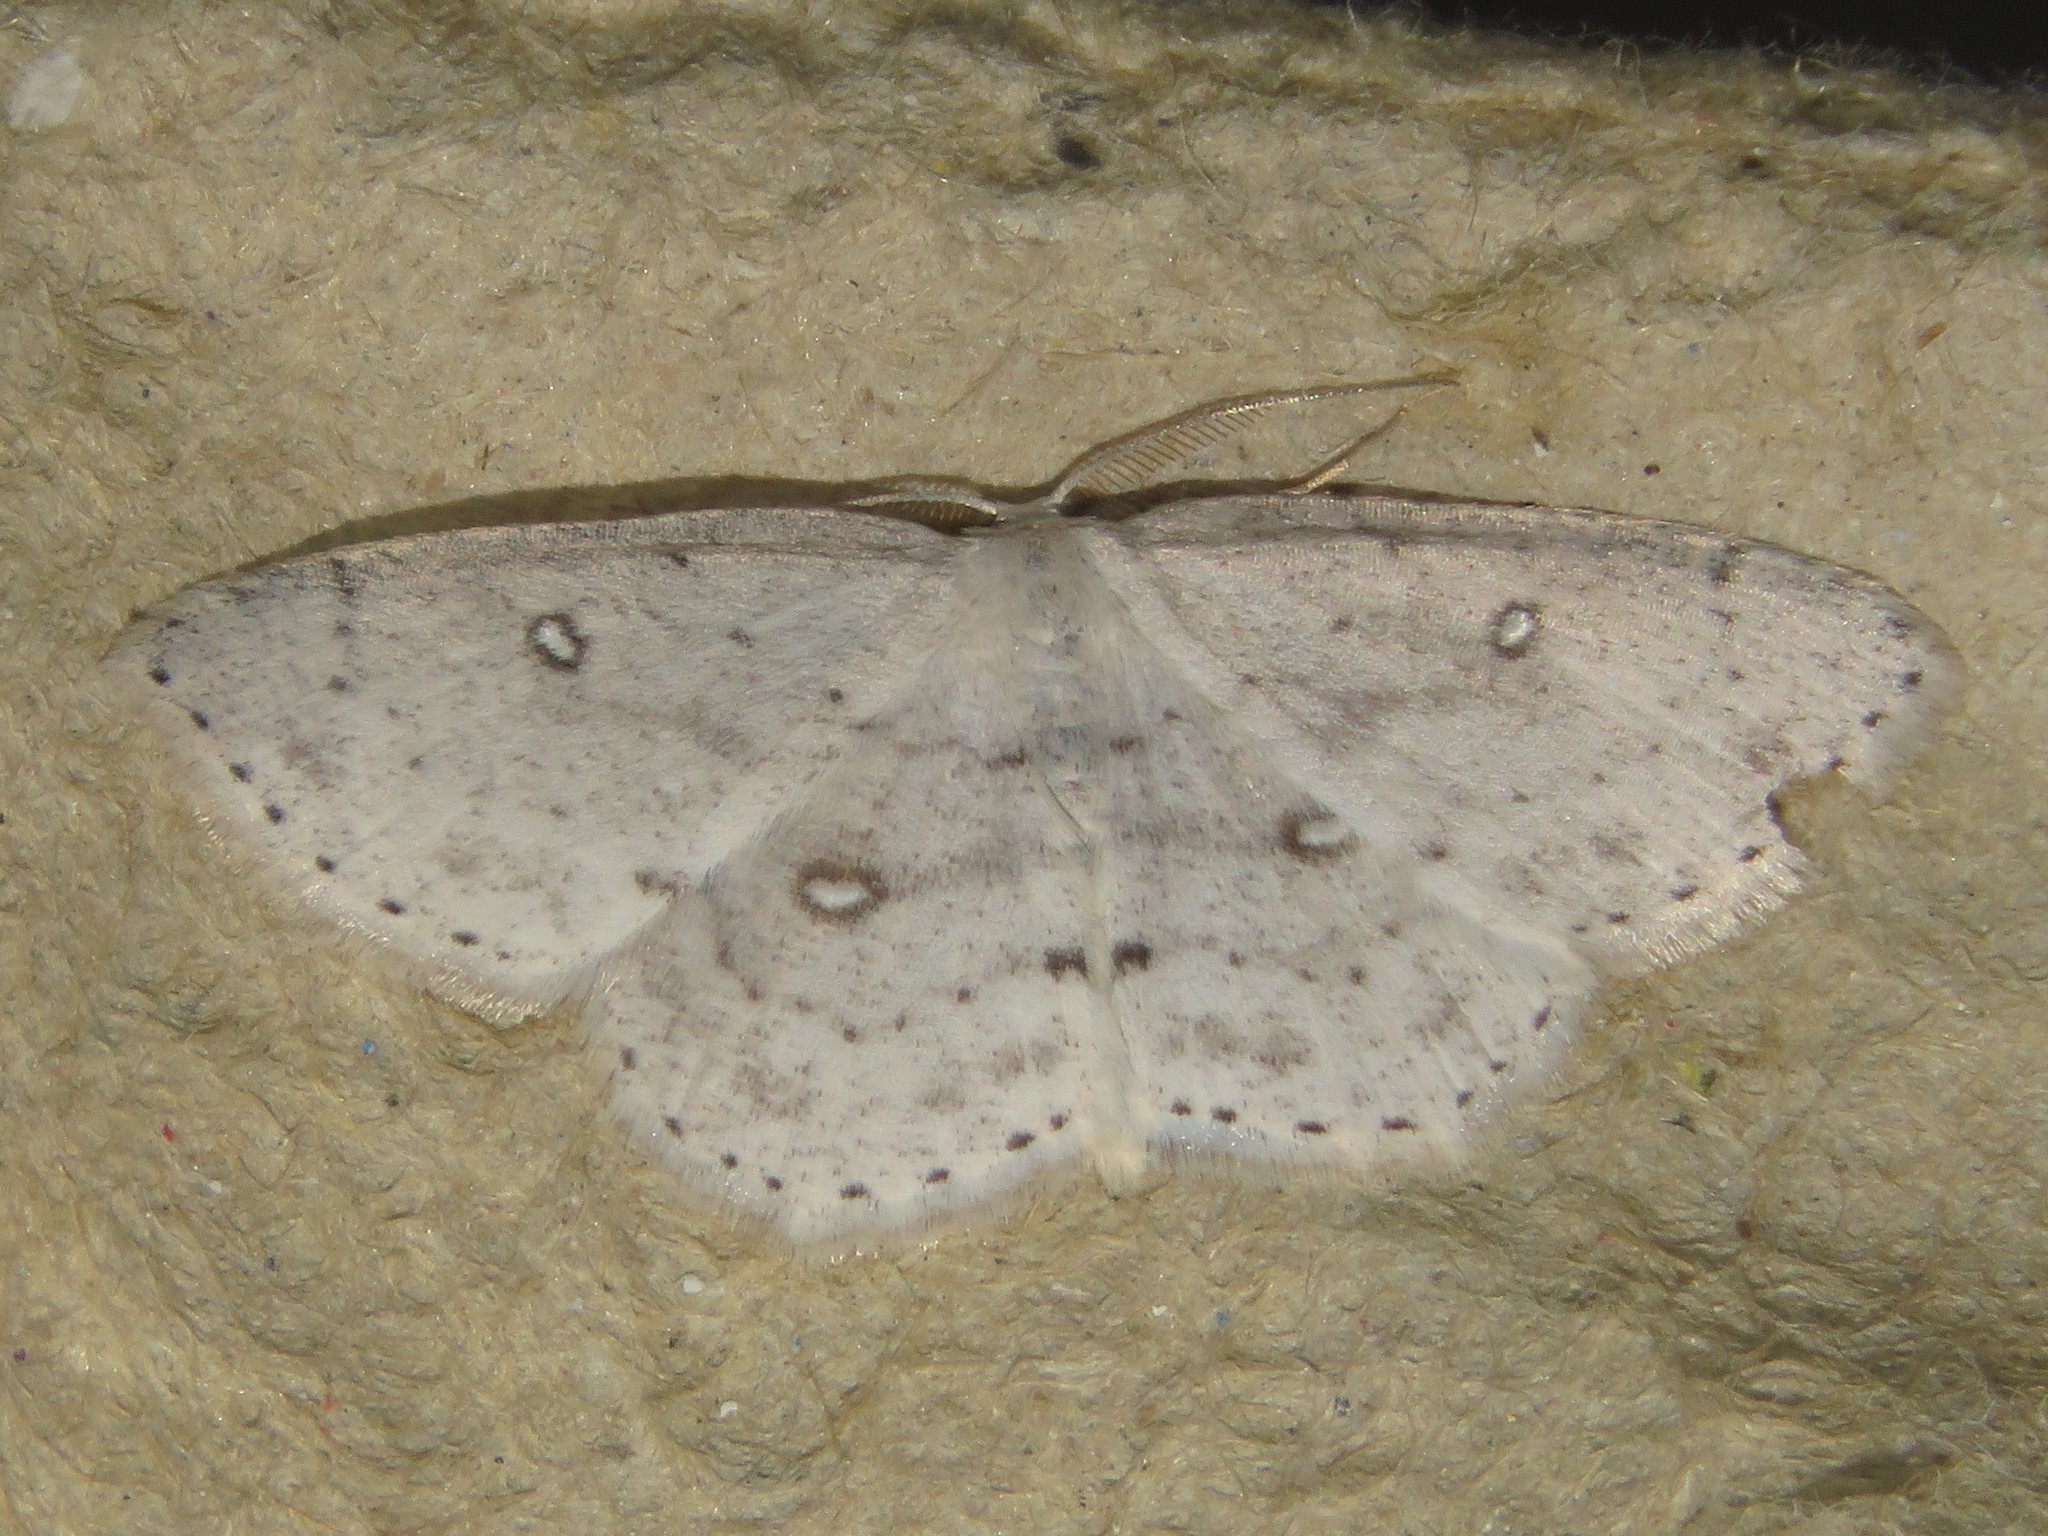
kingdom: Animalia
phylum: Arthropoda
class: Insecta
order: Lepidoptera
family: Geometridae
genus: Cyclophora
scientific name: Cyclophora pendulinaria
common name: Sweet fern geometer
